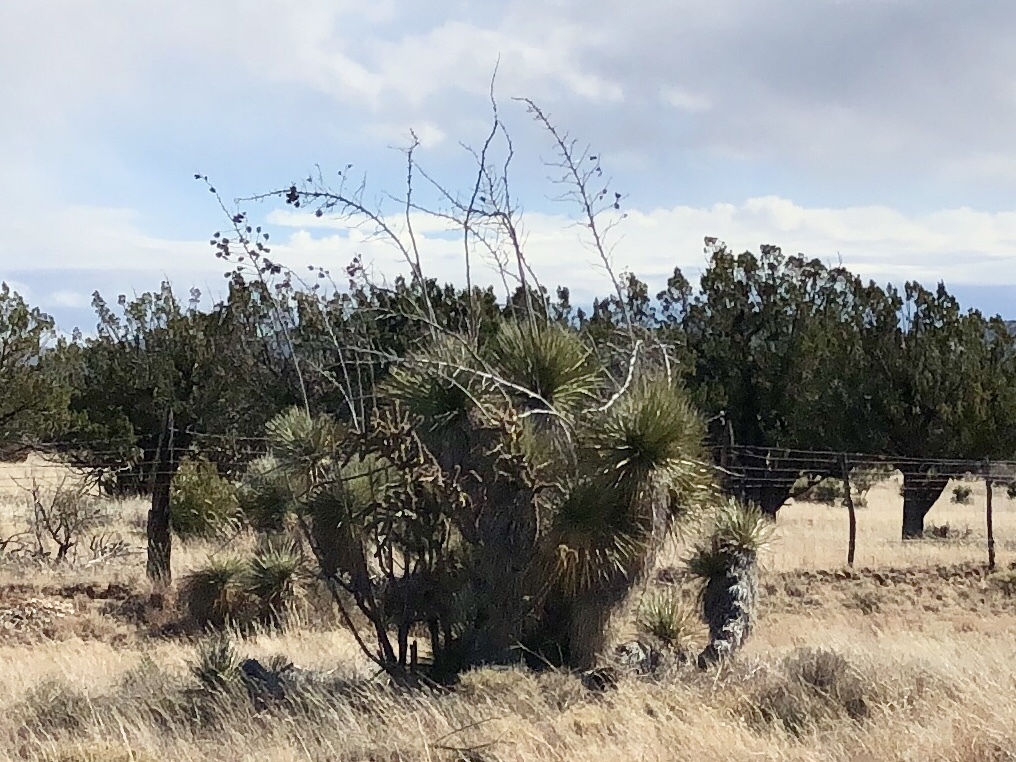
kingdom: Plantae
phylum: Tracheophyta
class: Liliopsida
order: Asparagales
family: Asparagaceae
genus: Yucca
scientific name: Yucca elata
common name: Palmella
